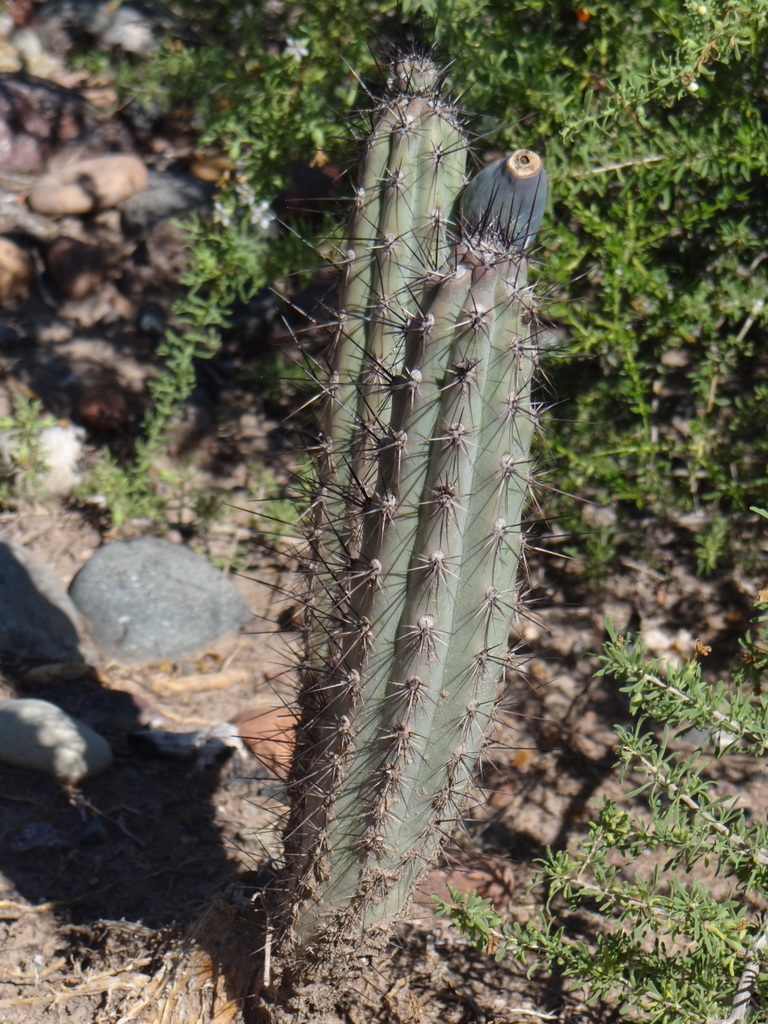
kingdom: Plantae
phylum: Tracheophyta
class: Magnoliopsida
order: Caryophyllales
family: Cactaceae
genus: Cereus
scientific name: Cereus aethiops
